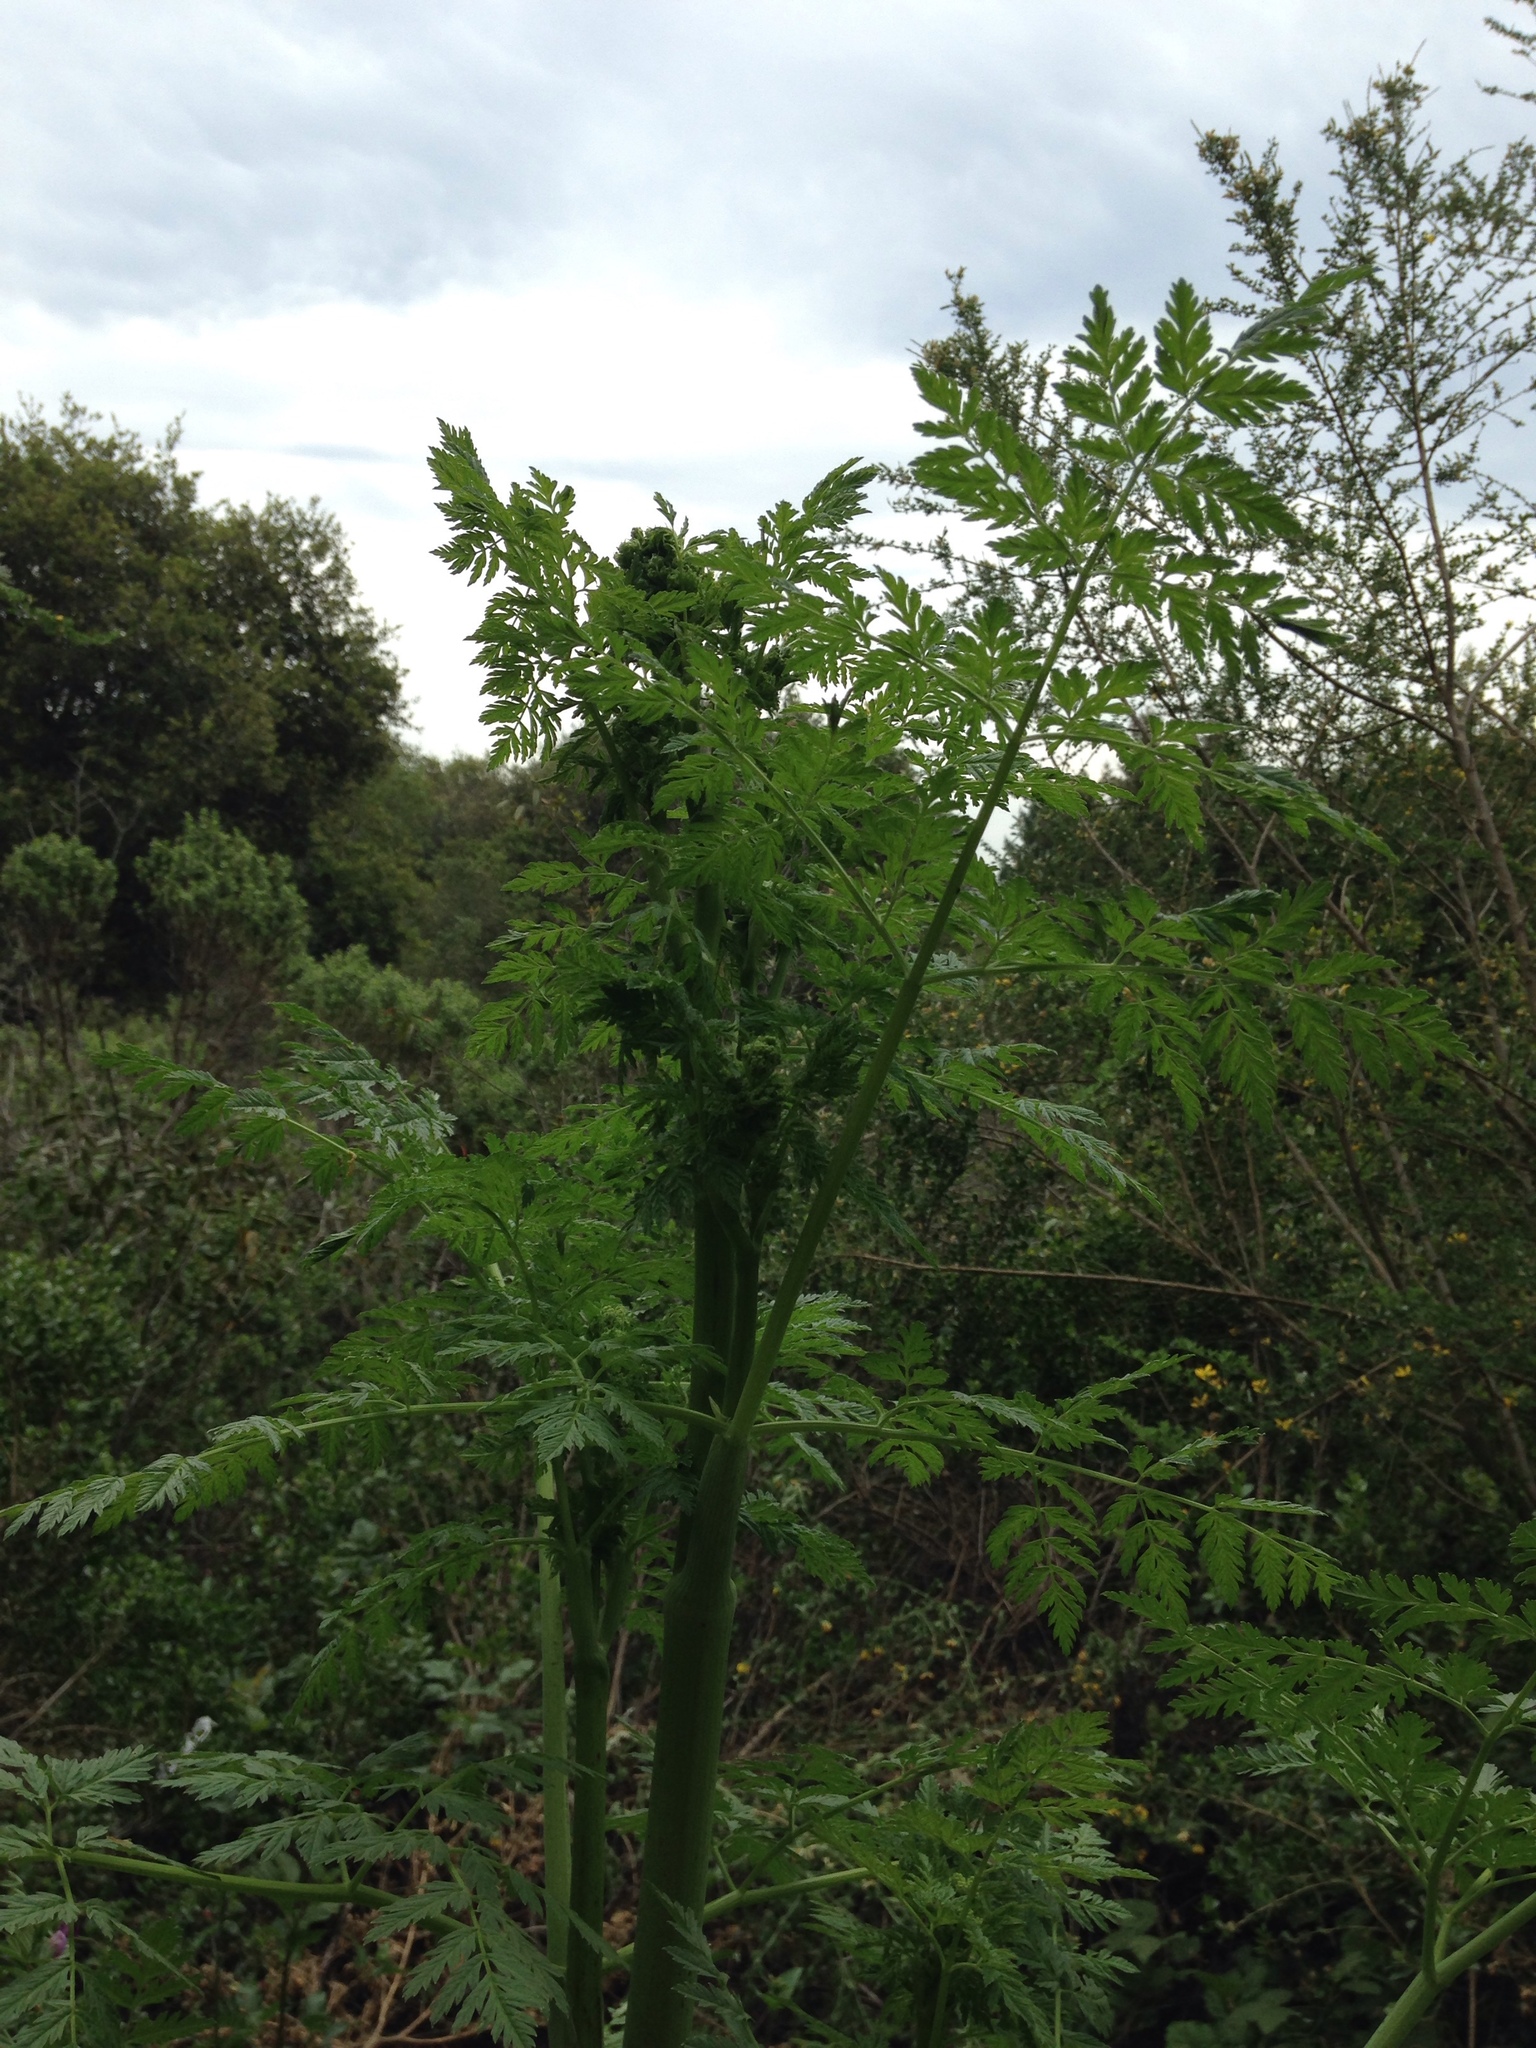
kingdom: Plantae
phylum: Tracheophyta
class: Magnoliopsida
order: Apiales
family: Apiaceae
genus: Conium
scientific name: Conium maculatum
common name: Hemlock
